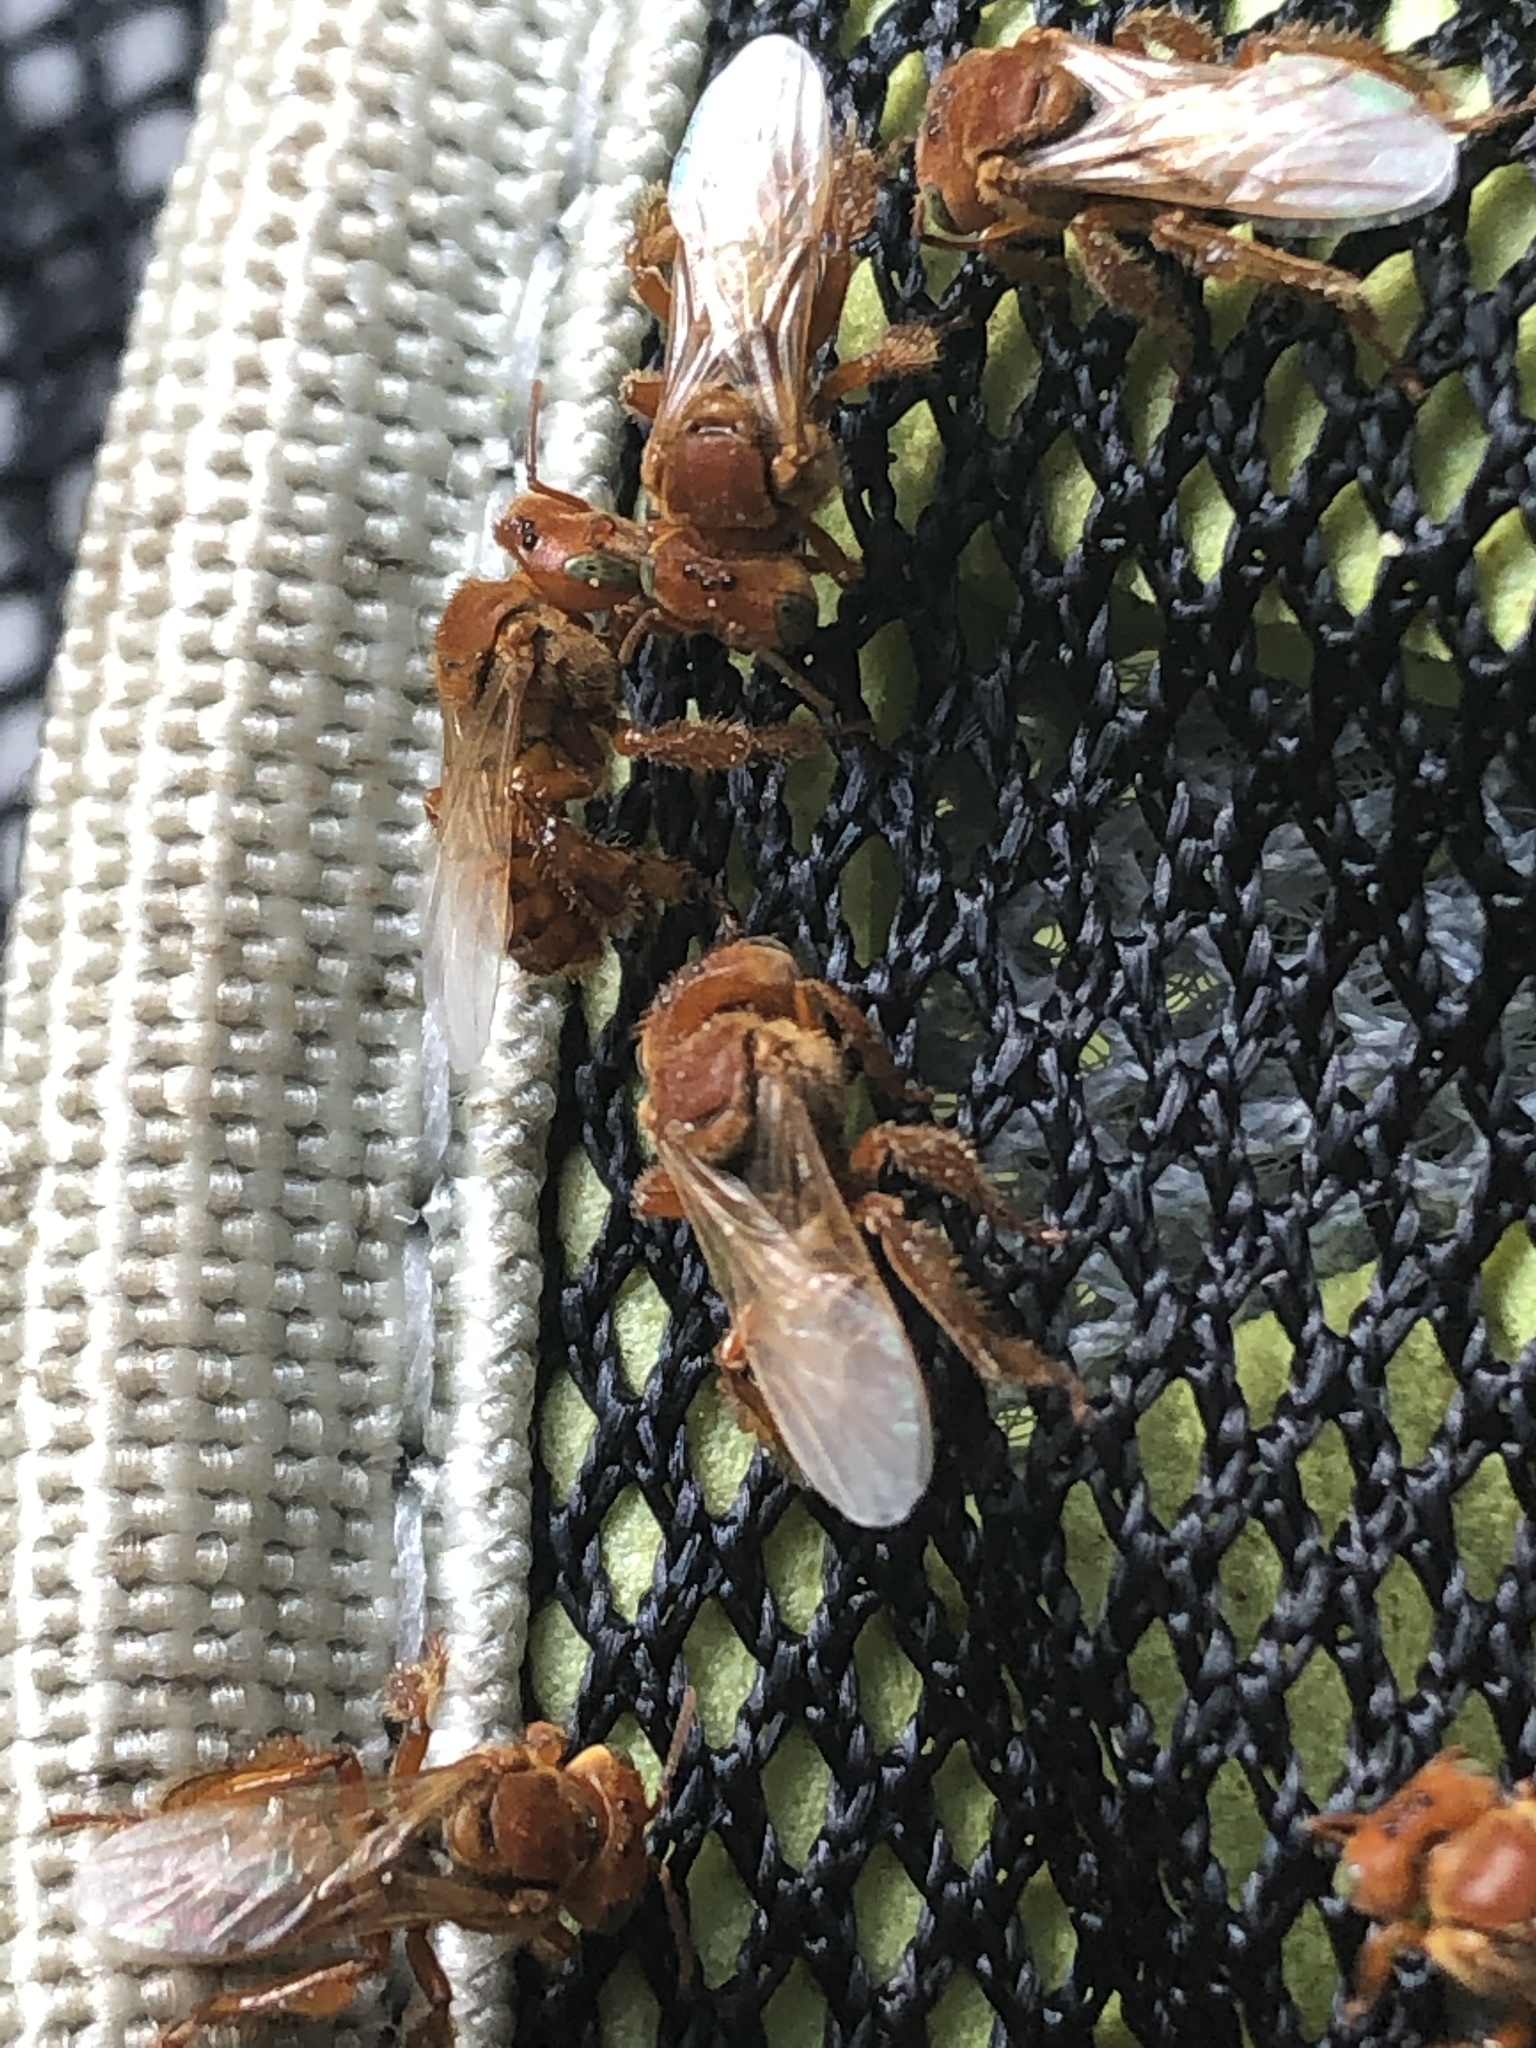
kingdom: Animalia
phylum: Arthropoda
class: Insecta
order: Hymenoptera
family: Apidae
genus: Trigona
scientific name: Trigona dallatorreana
